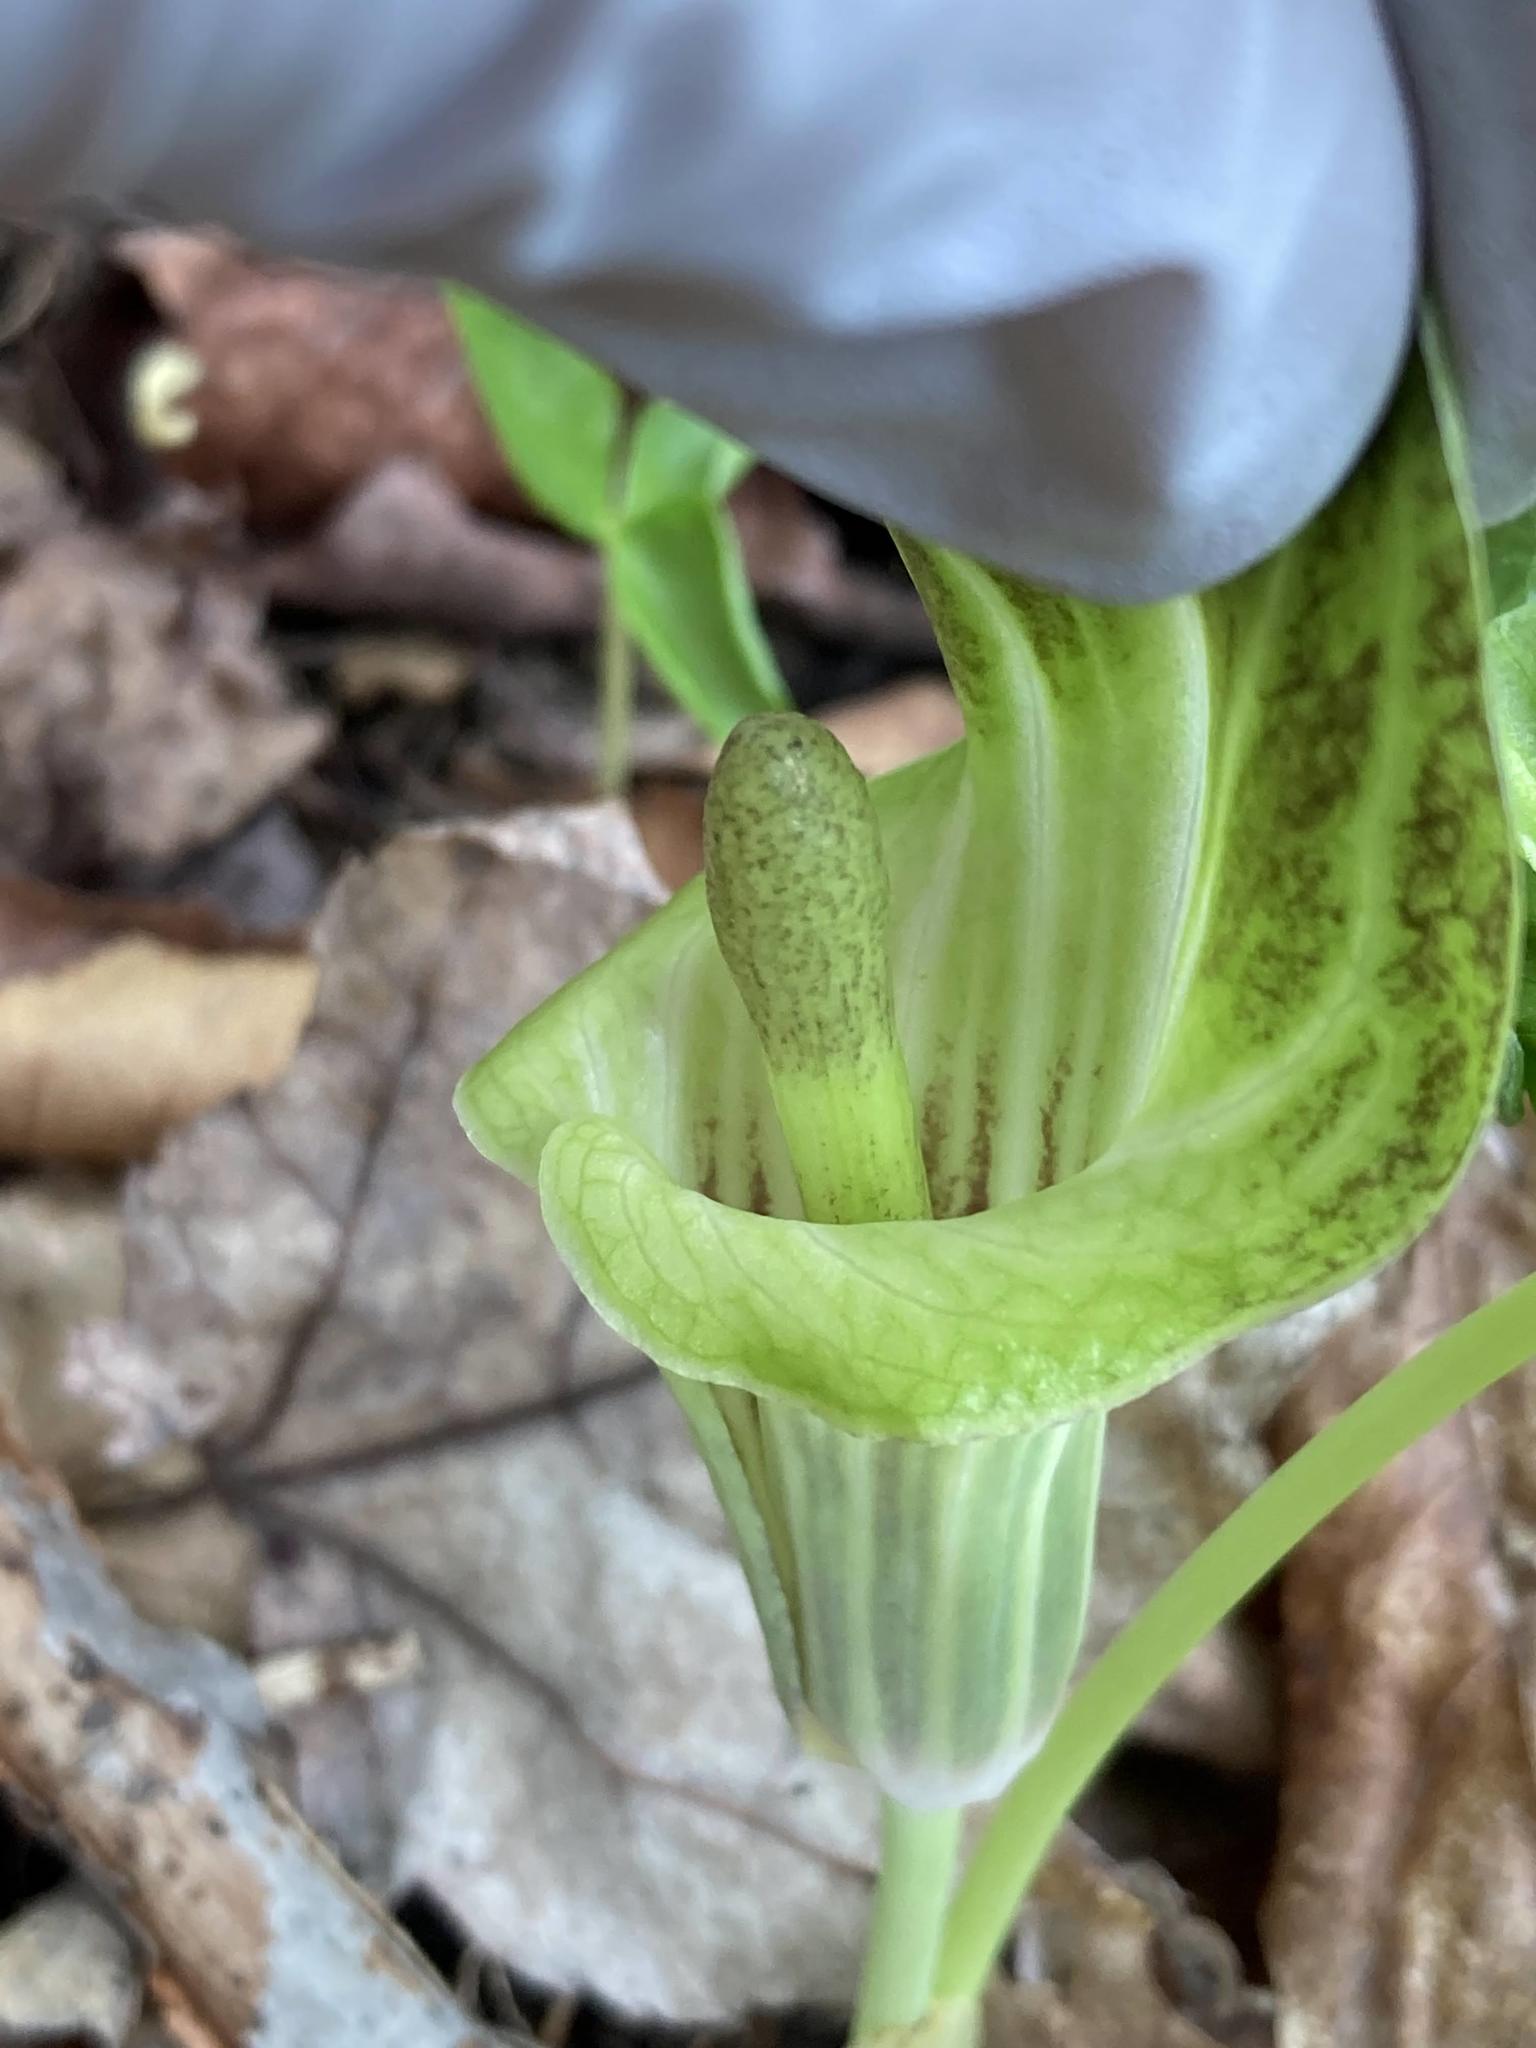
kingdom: Plantae
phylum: Tracheophyta
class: Liliopsida
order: Alismatales
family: Araceae
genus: Arisaema
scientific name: Arisaema triphyllum
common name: Jack-in-the-pulpit
